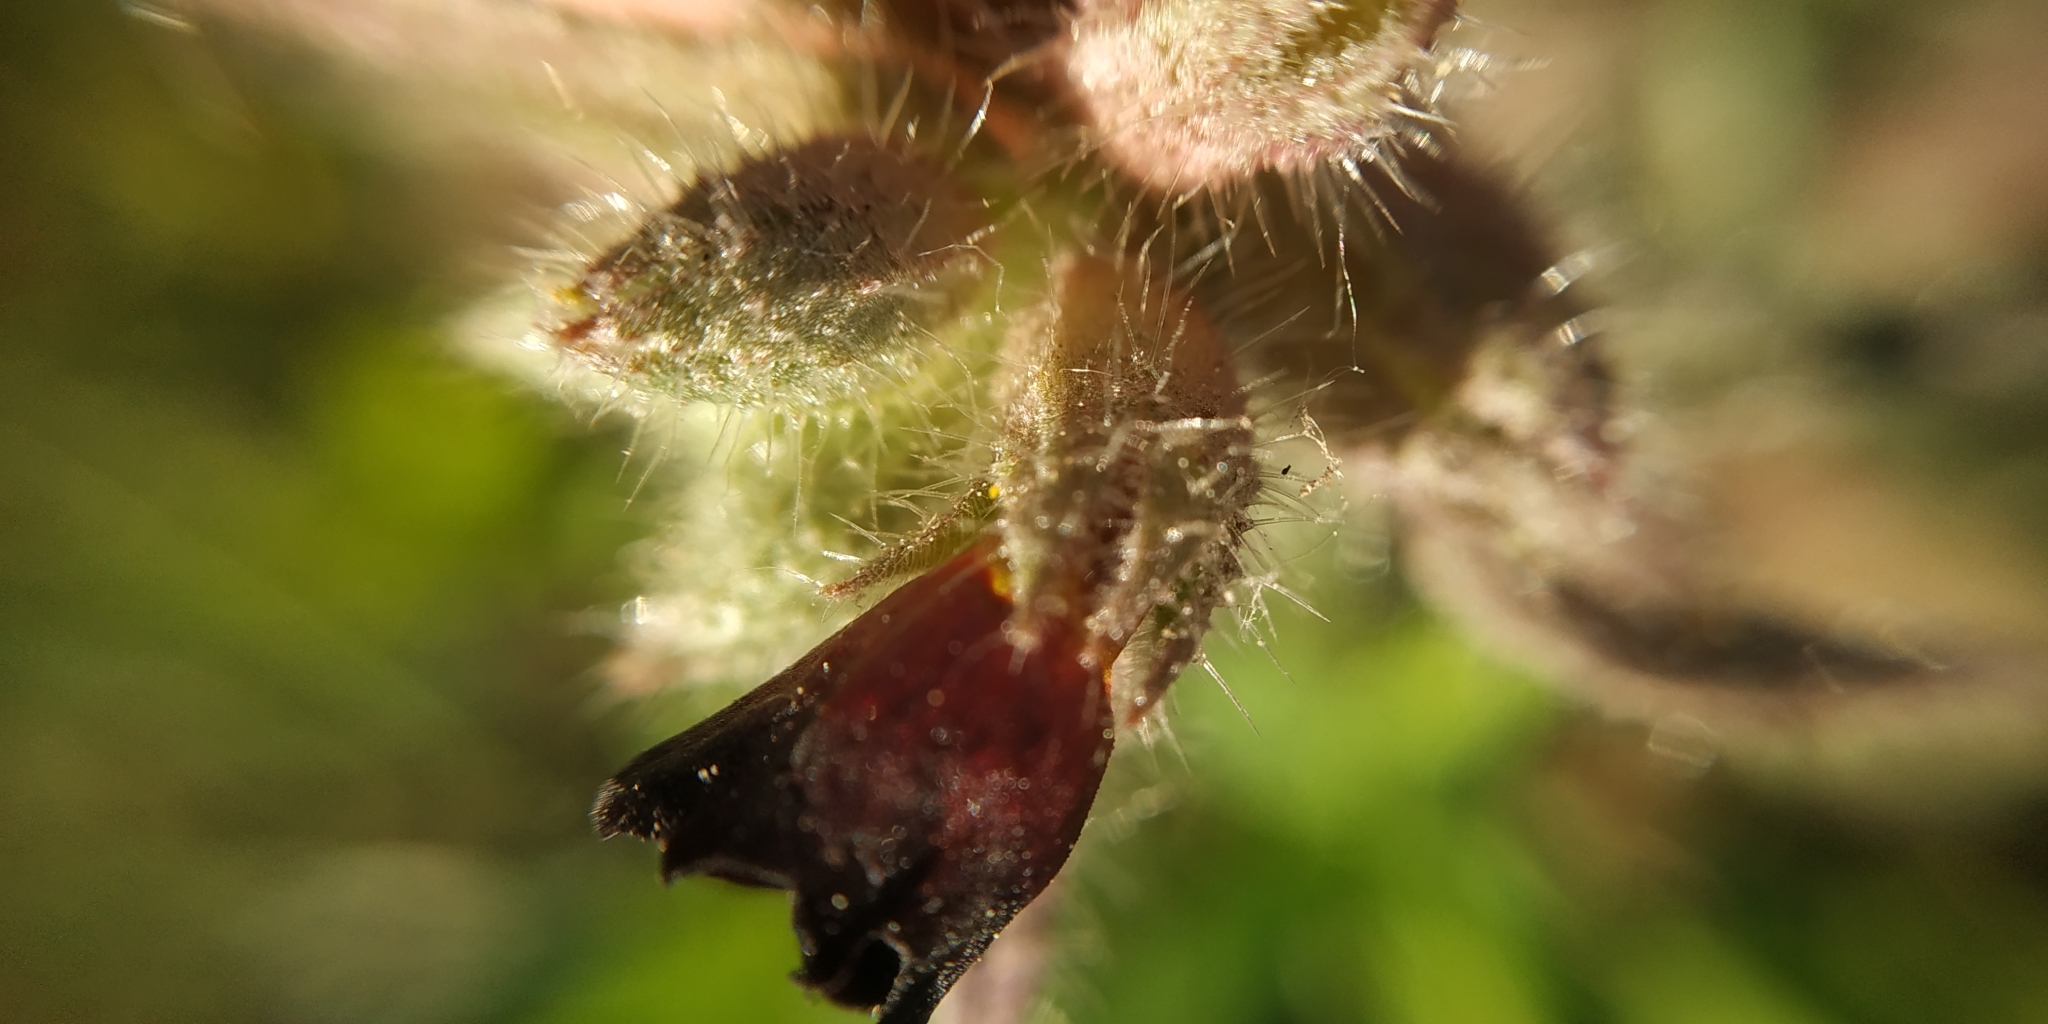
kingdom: Plantae
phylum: Tracheophyta
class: Magnoliopsida
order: Boraginales
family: Boraginaceae
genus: Nonea
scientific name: Nonea pulla
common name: Brown nonea
